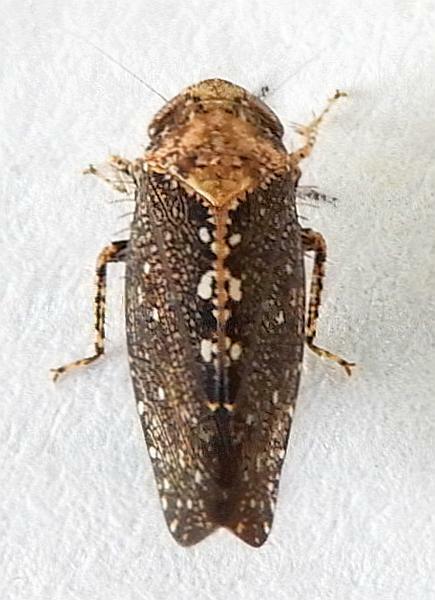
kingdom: Animalia
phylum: Arthropoda
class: Insecta
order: Hemiptera
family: Cicadellidae
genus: Excultanus
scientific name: Excultanus excultus
